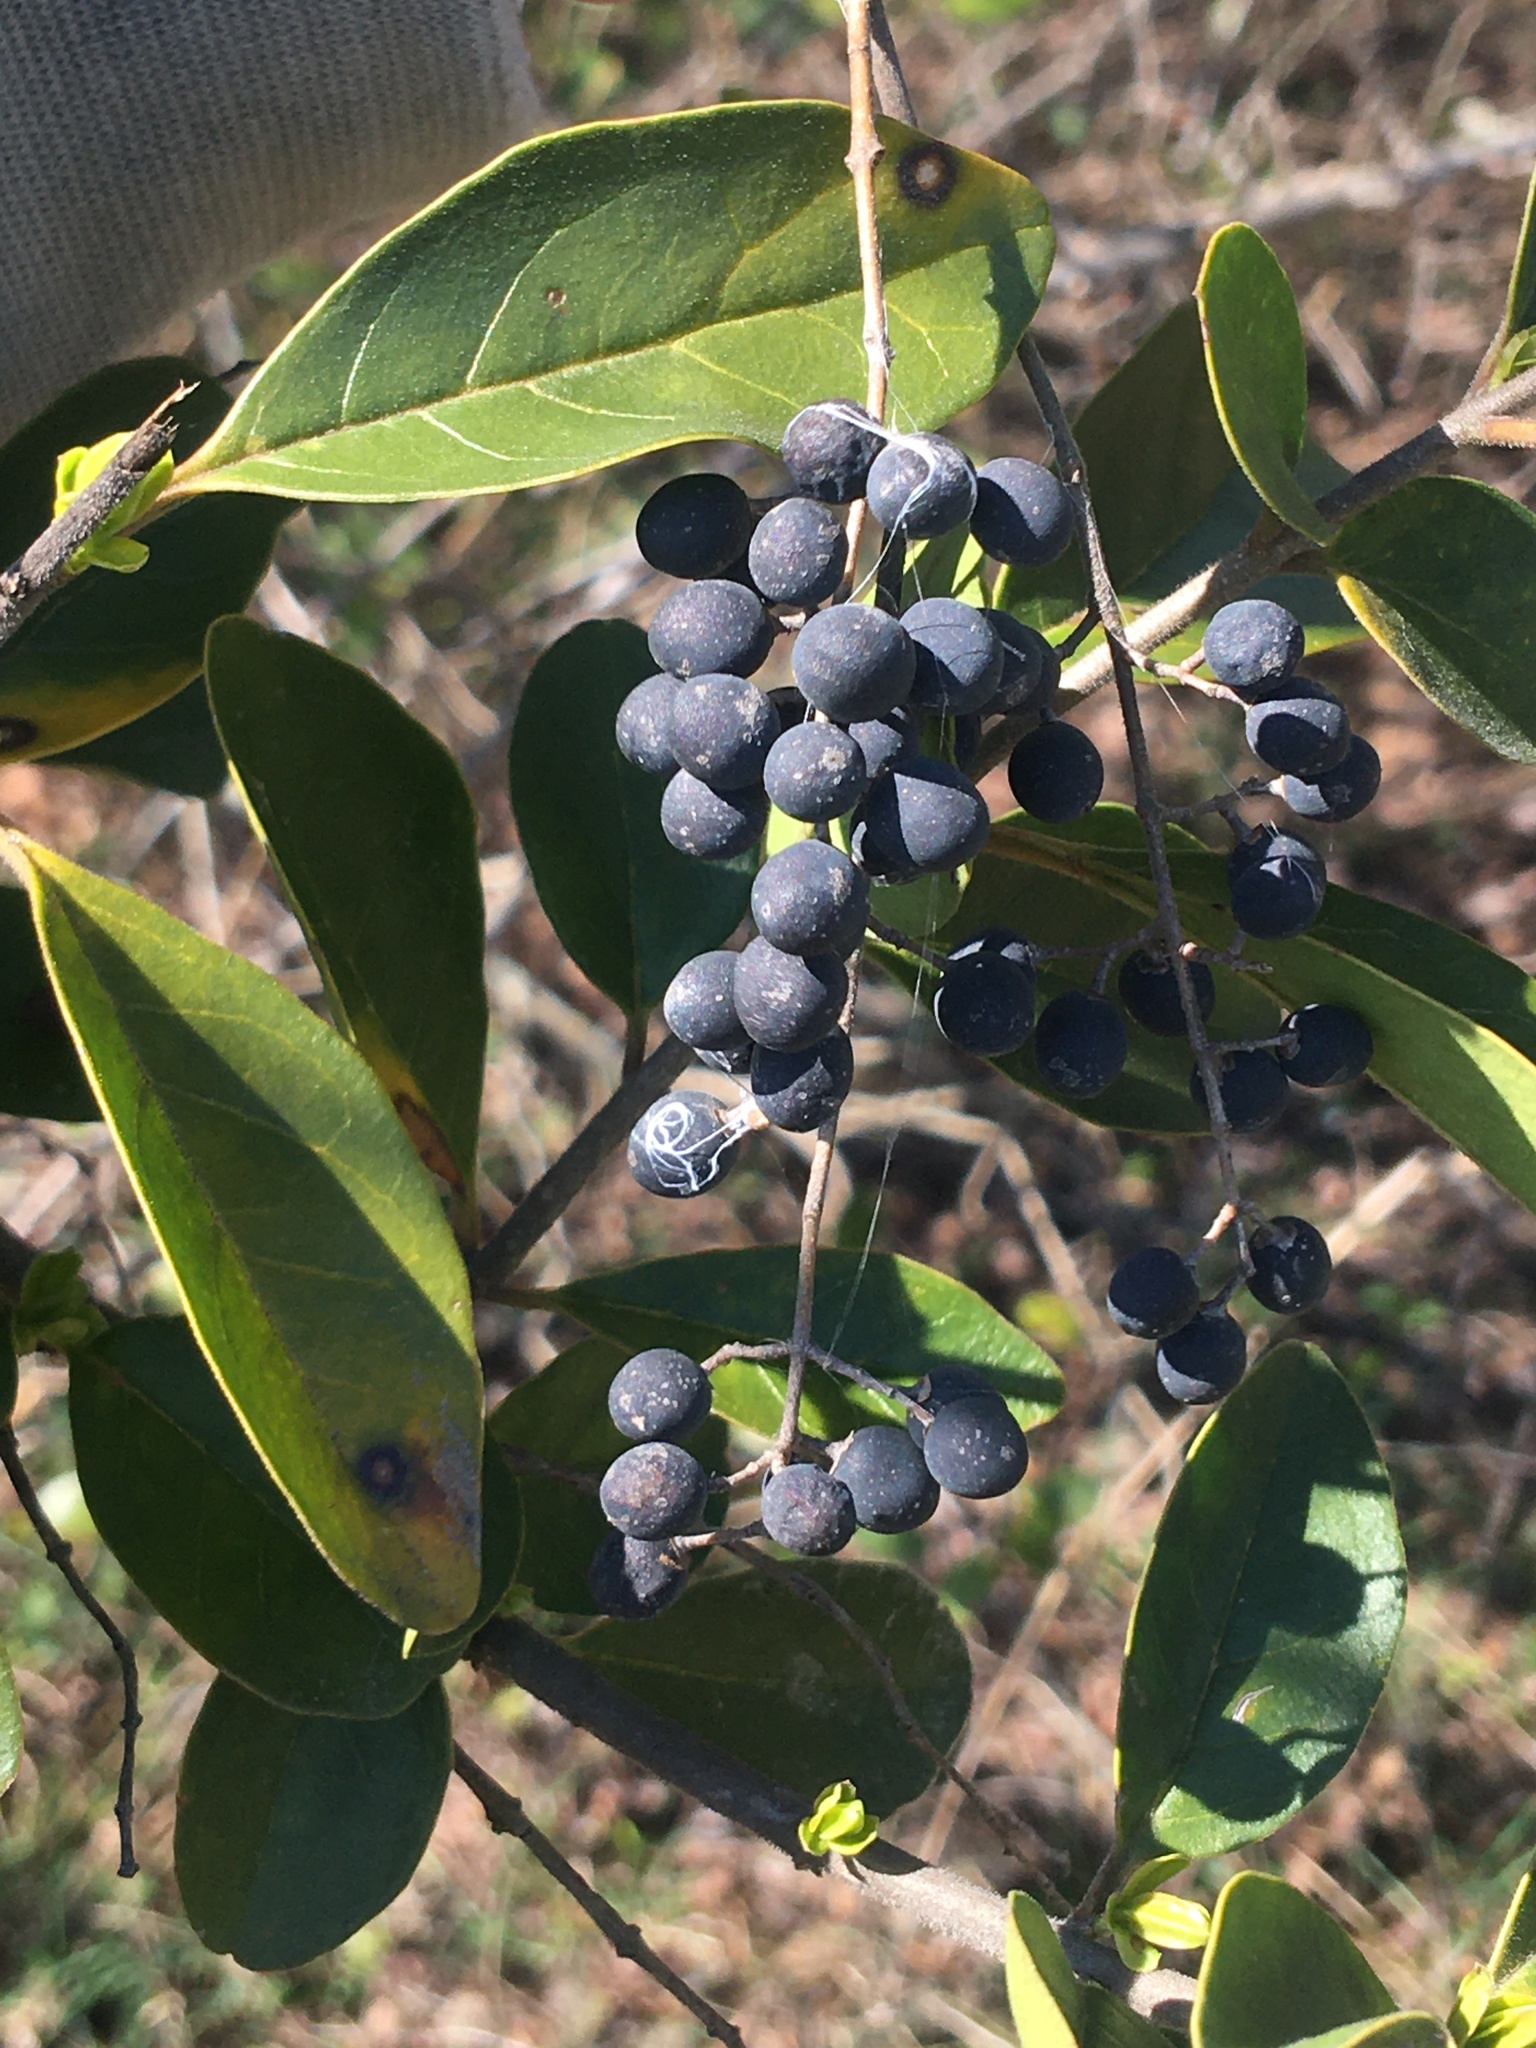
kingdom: Plantae
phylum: Tracheophyta
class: Magnoliopsida
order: Lamiales
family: Oleaceae
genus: Ligustrum
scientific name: Ligustrum sinense
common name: Chinese privet
